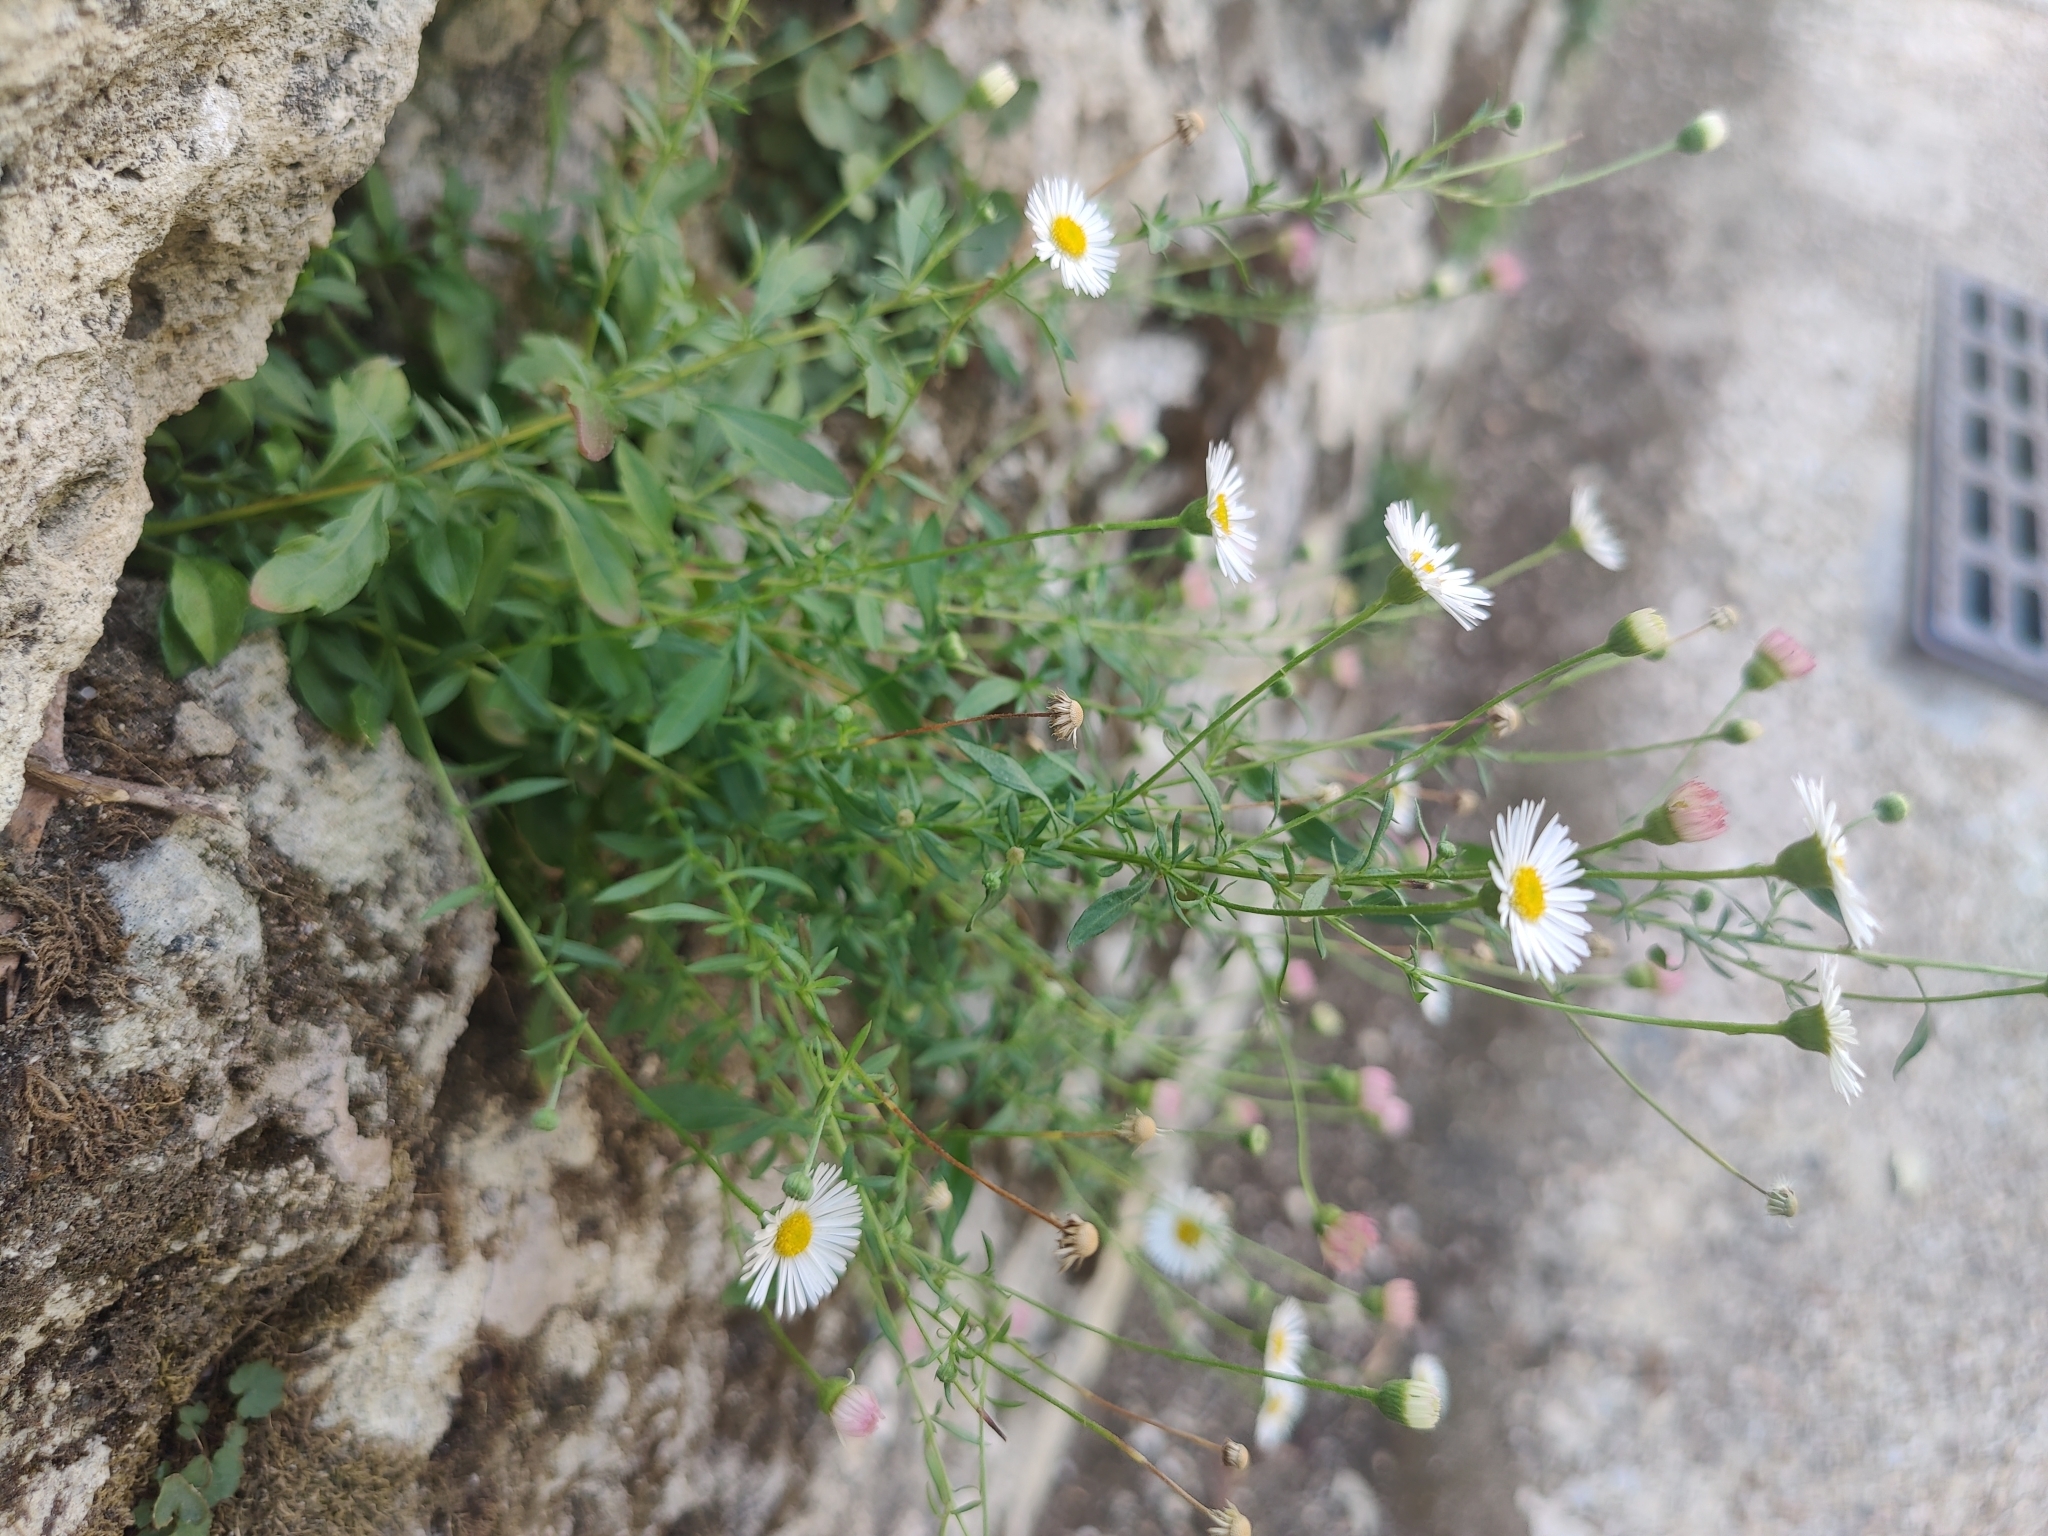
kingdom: Plantae
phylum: Tracheophyta
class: Magnoliopsida
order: Asterales
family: Asteraceae
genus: Erigeron
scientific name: Erigeron karvinskianus
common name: Mexican fleabane
